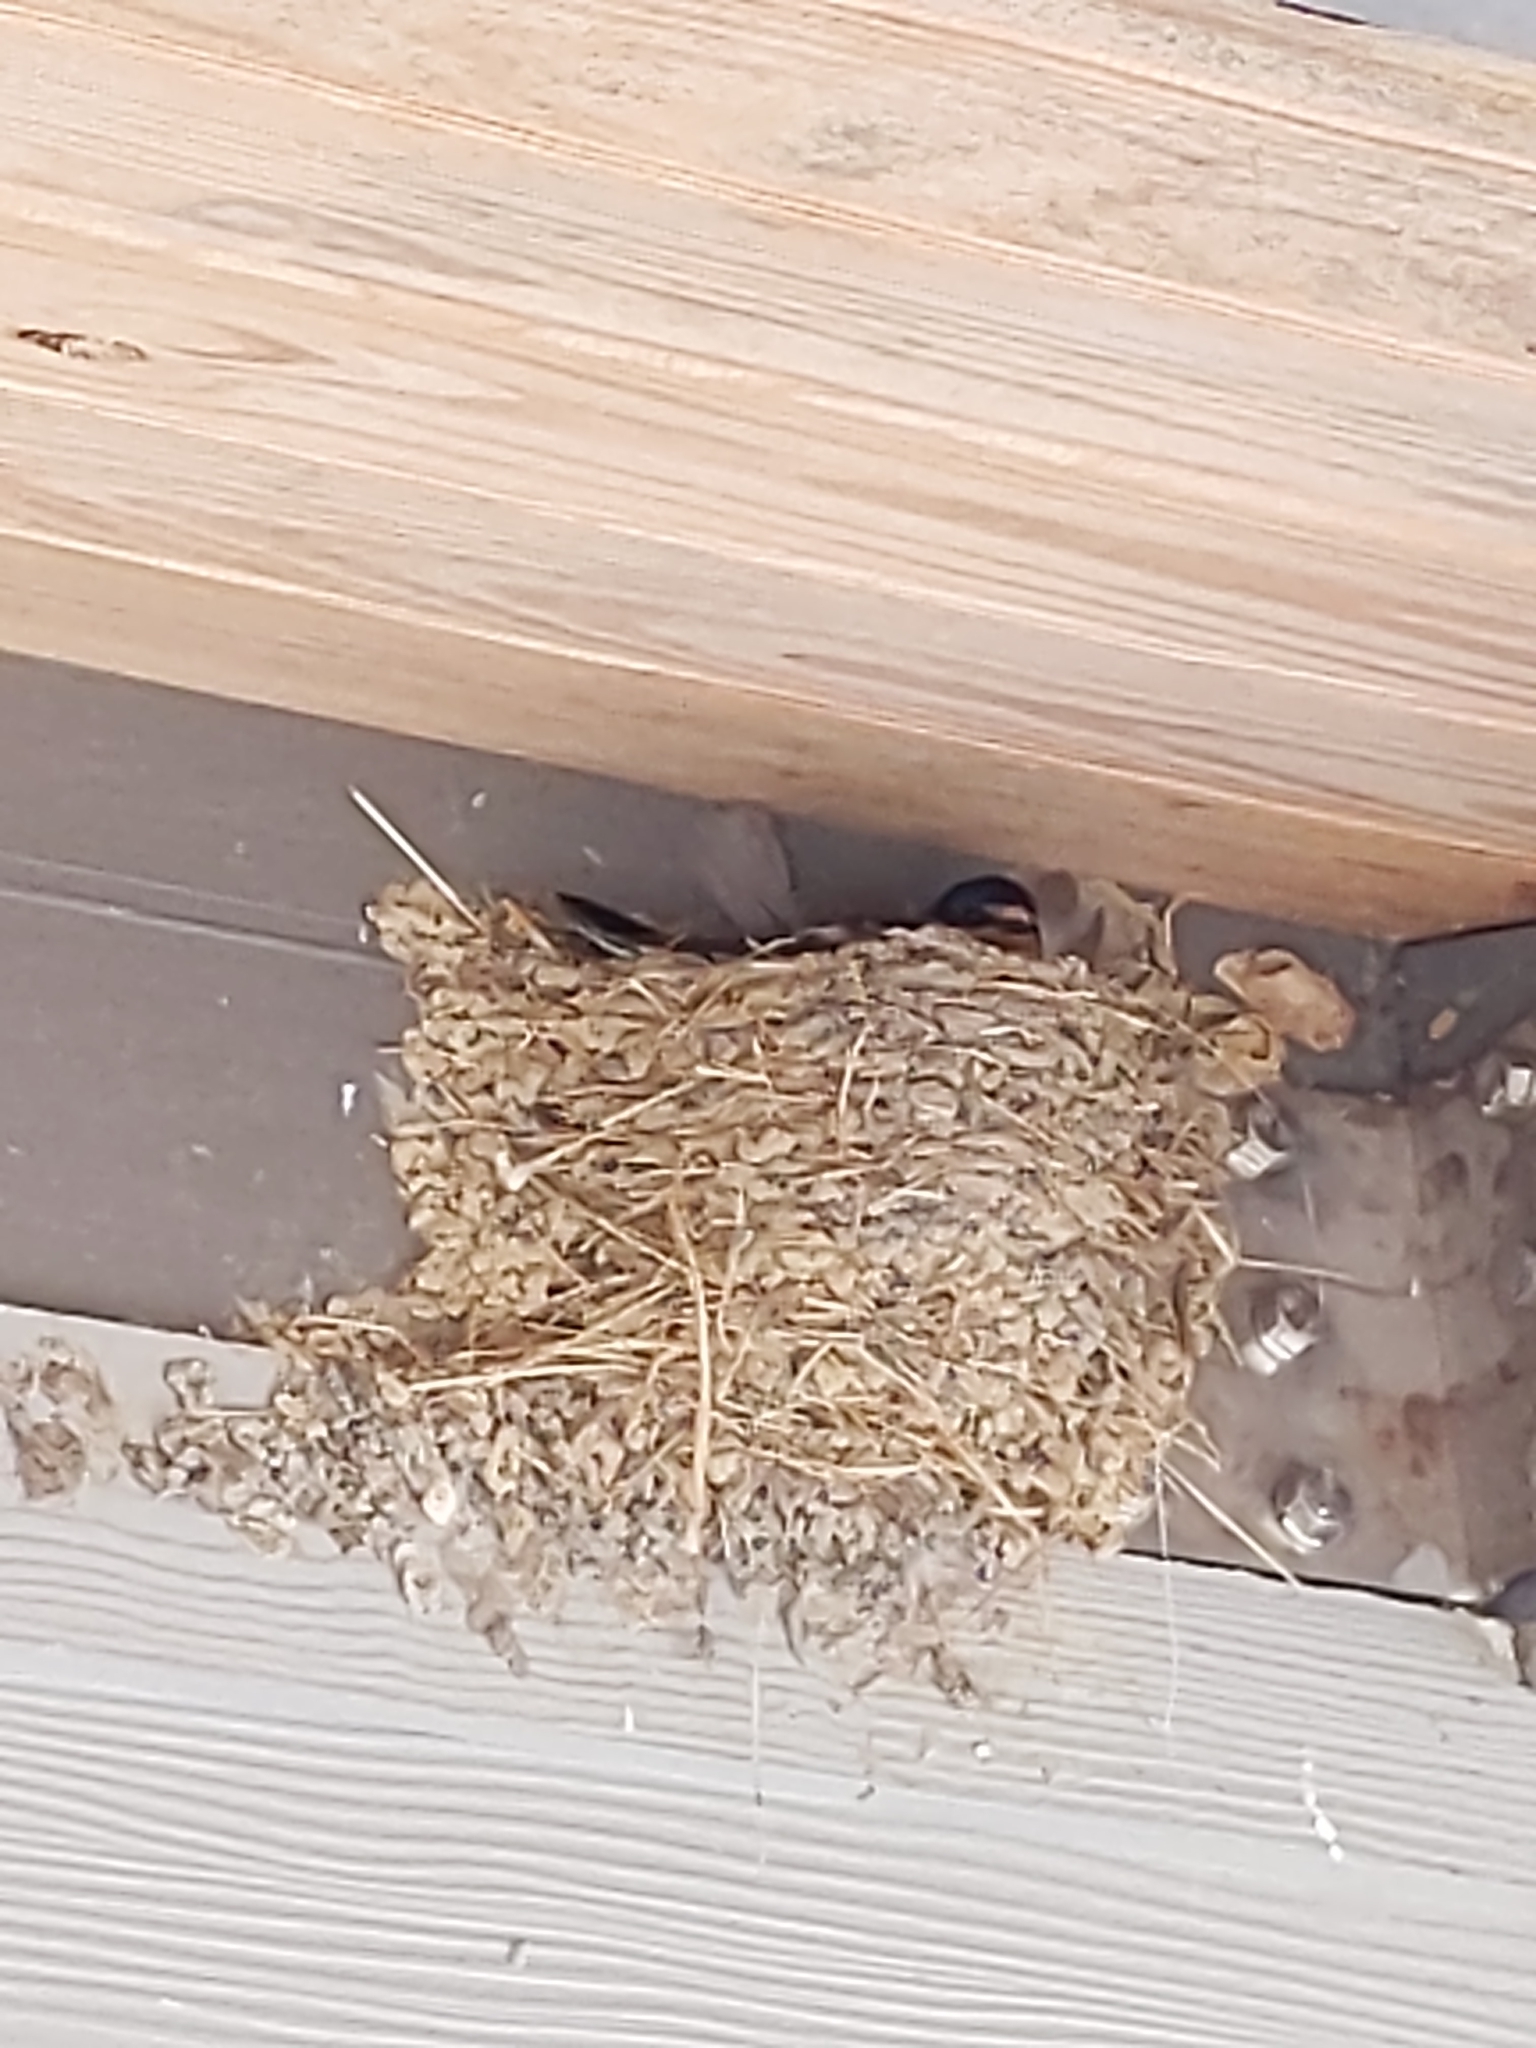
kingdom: Animalia
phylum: Chordata
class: Aves
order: Passeriformes
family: Hirundinidae
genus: Hirundo
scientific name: Hirundo rustica
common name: Barn swallow
